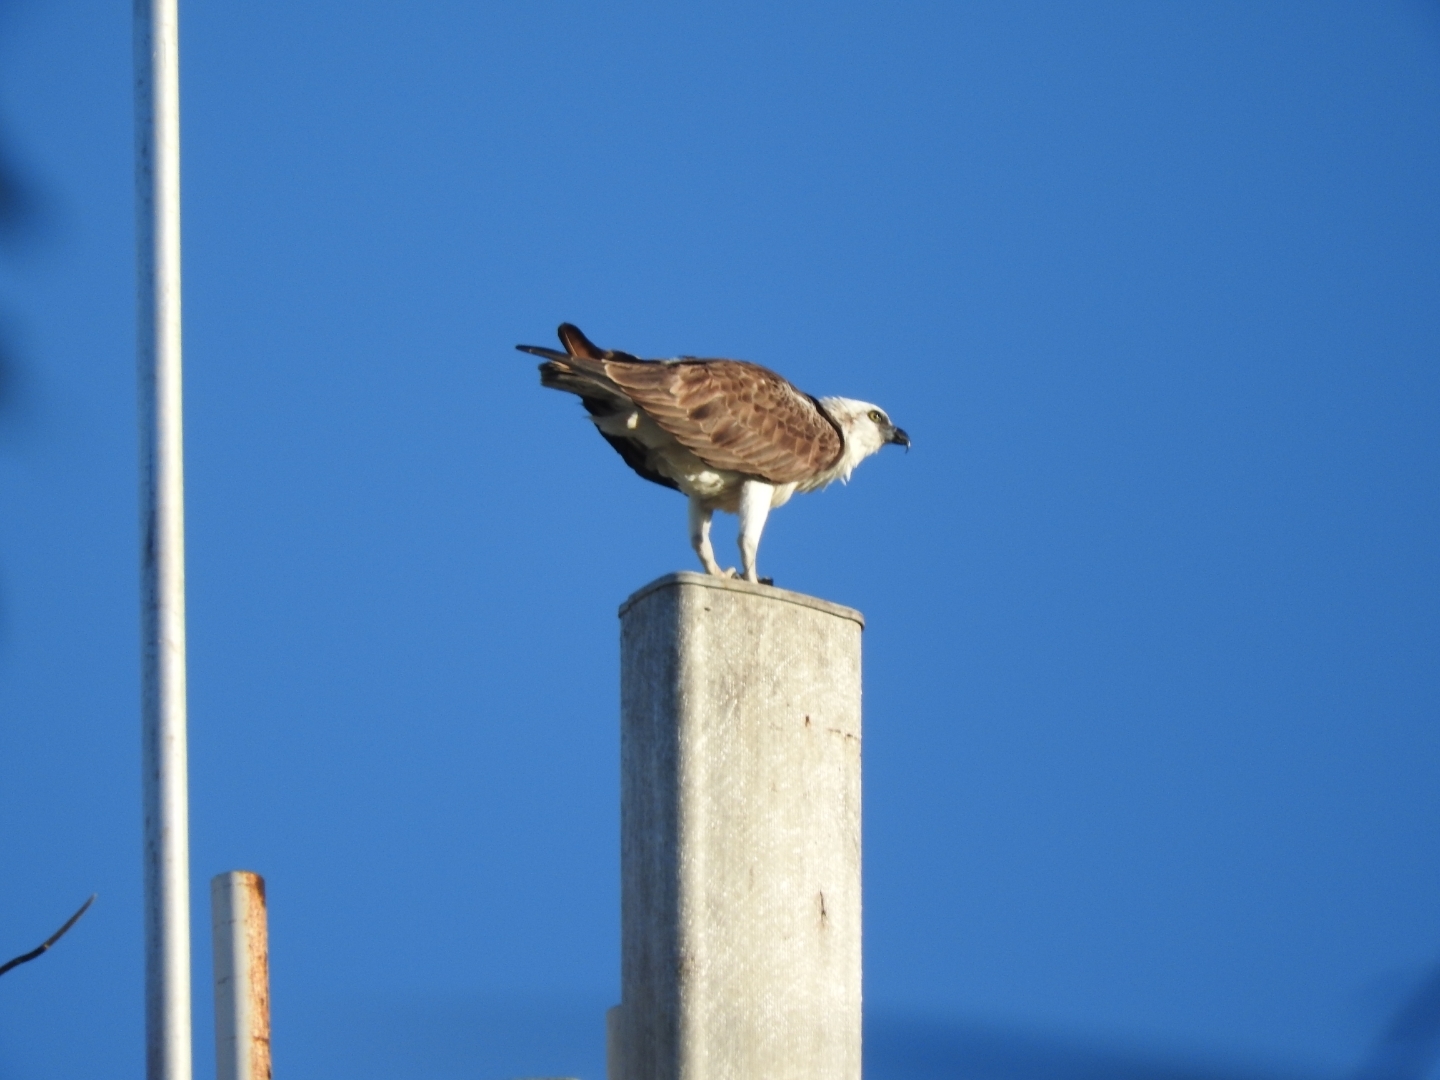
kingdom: Animalia
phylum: Chordata
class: Aves
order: Accipitriformes
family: Pandionidae
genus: Pandion
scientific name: Pandion haliaetus
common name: Osprey
